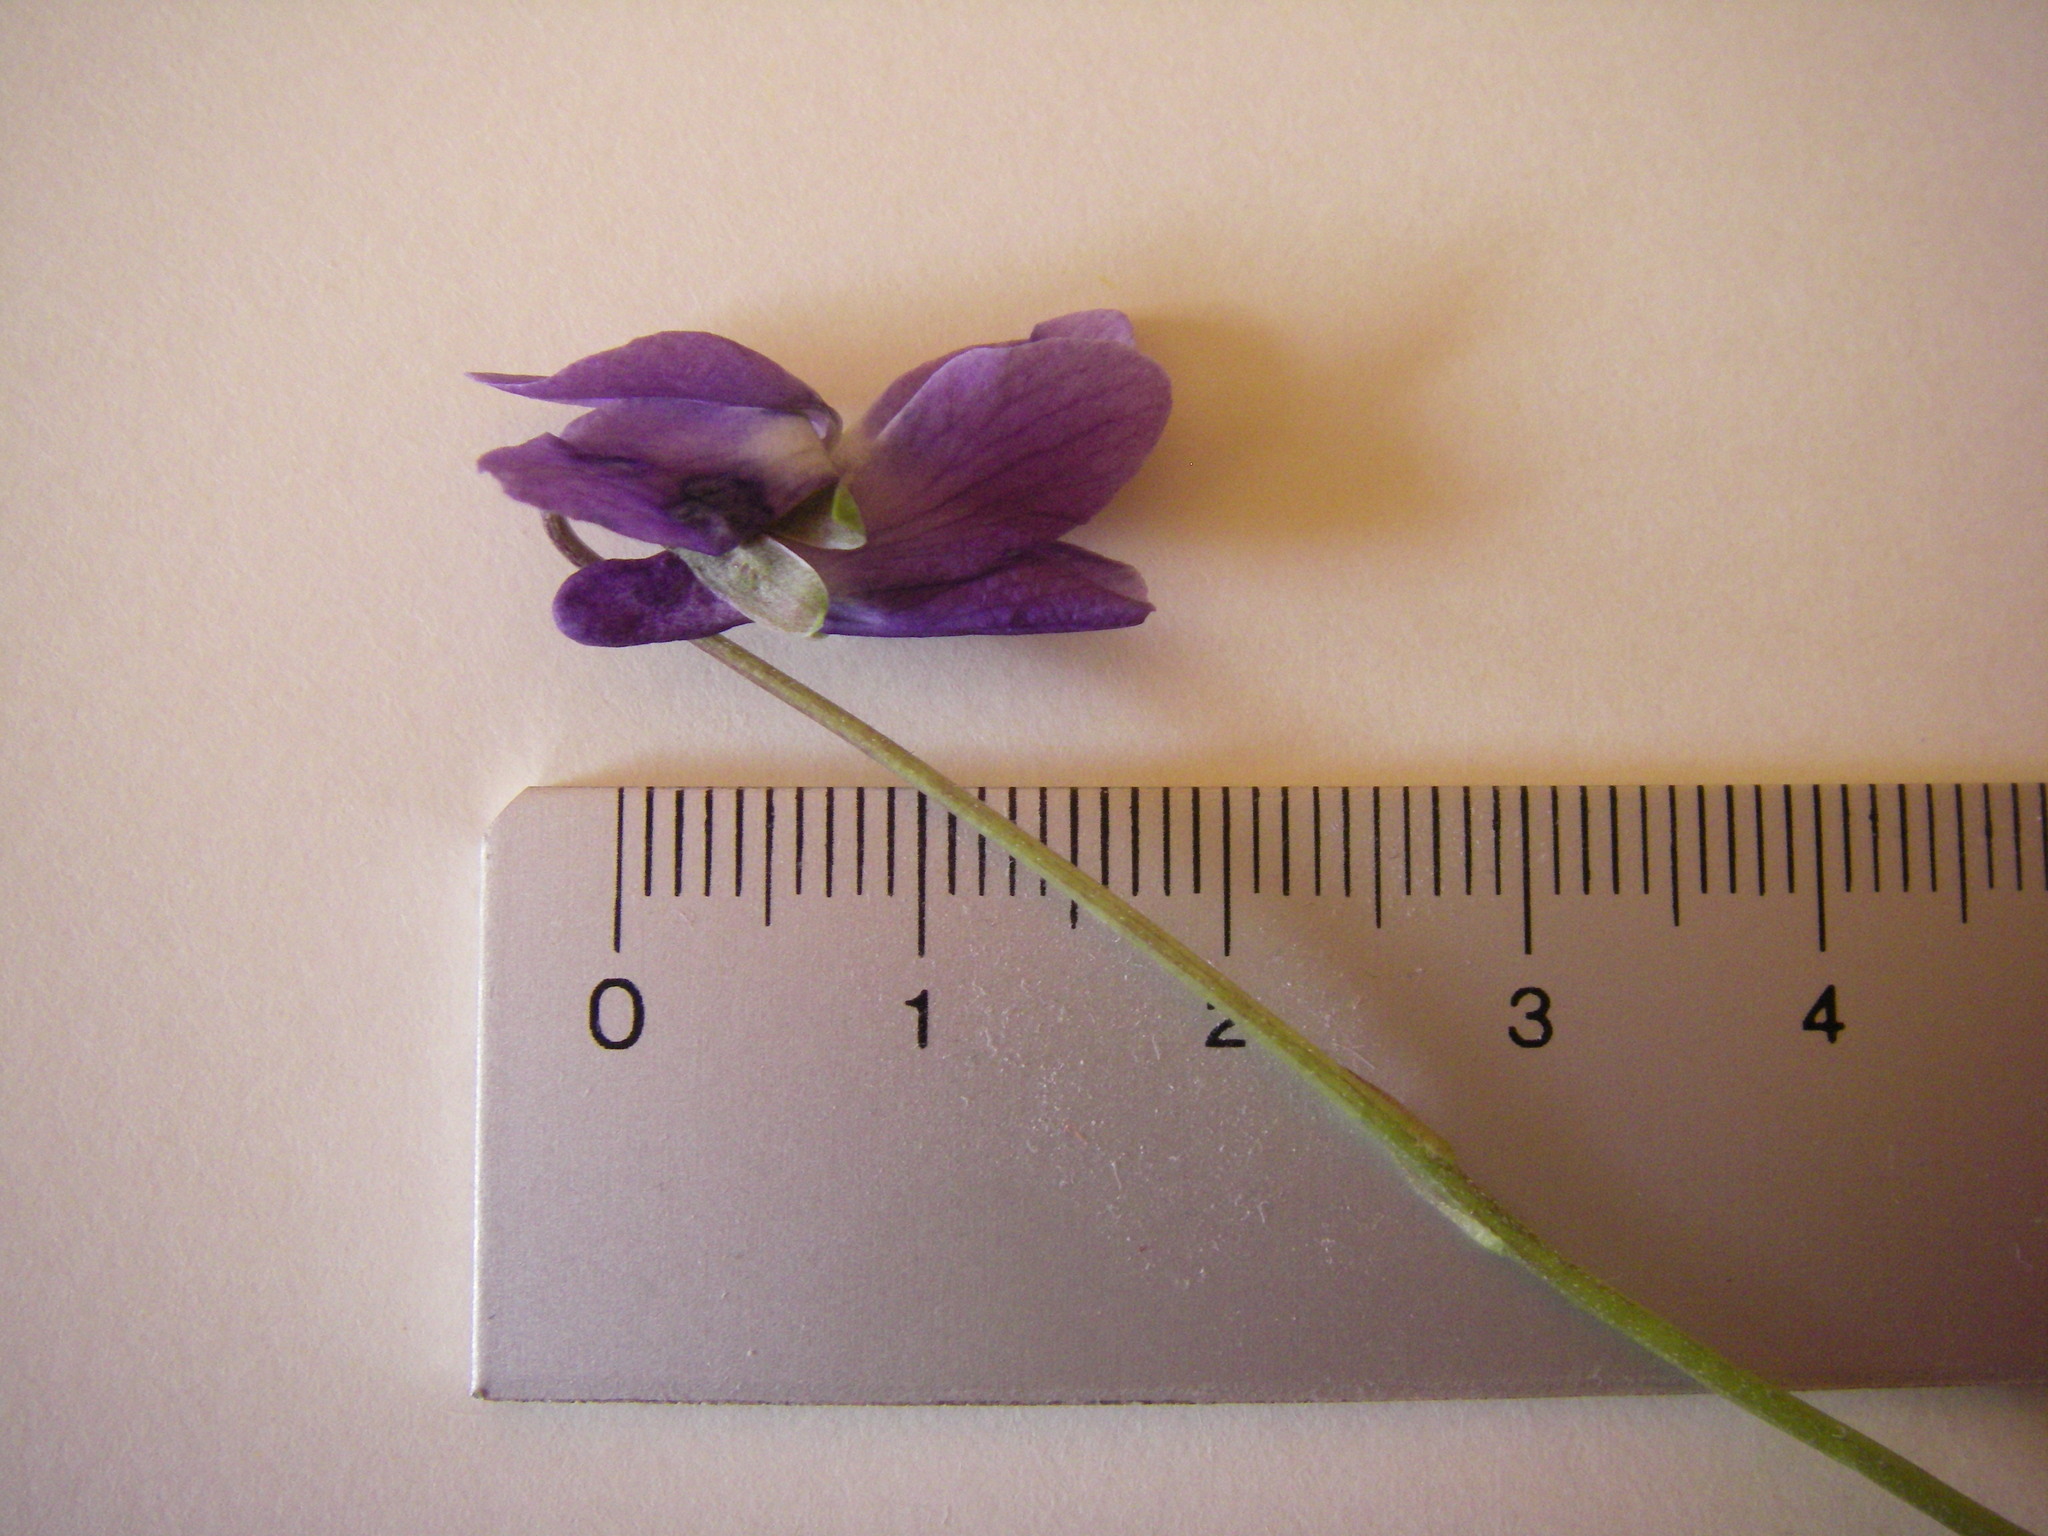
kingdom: Plantae
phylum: Tracheophyta
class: Magnoliopsida
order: Malpighiales
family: Violaceae
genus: Viola
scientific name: Viola odorata
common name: Sweet violet
